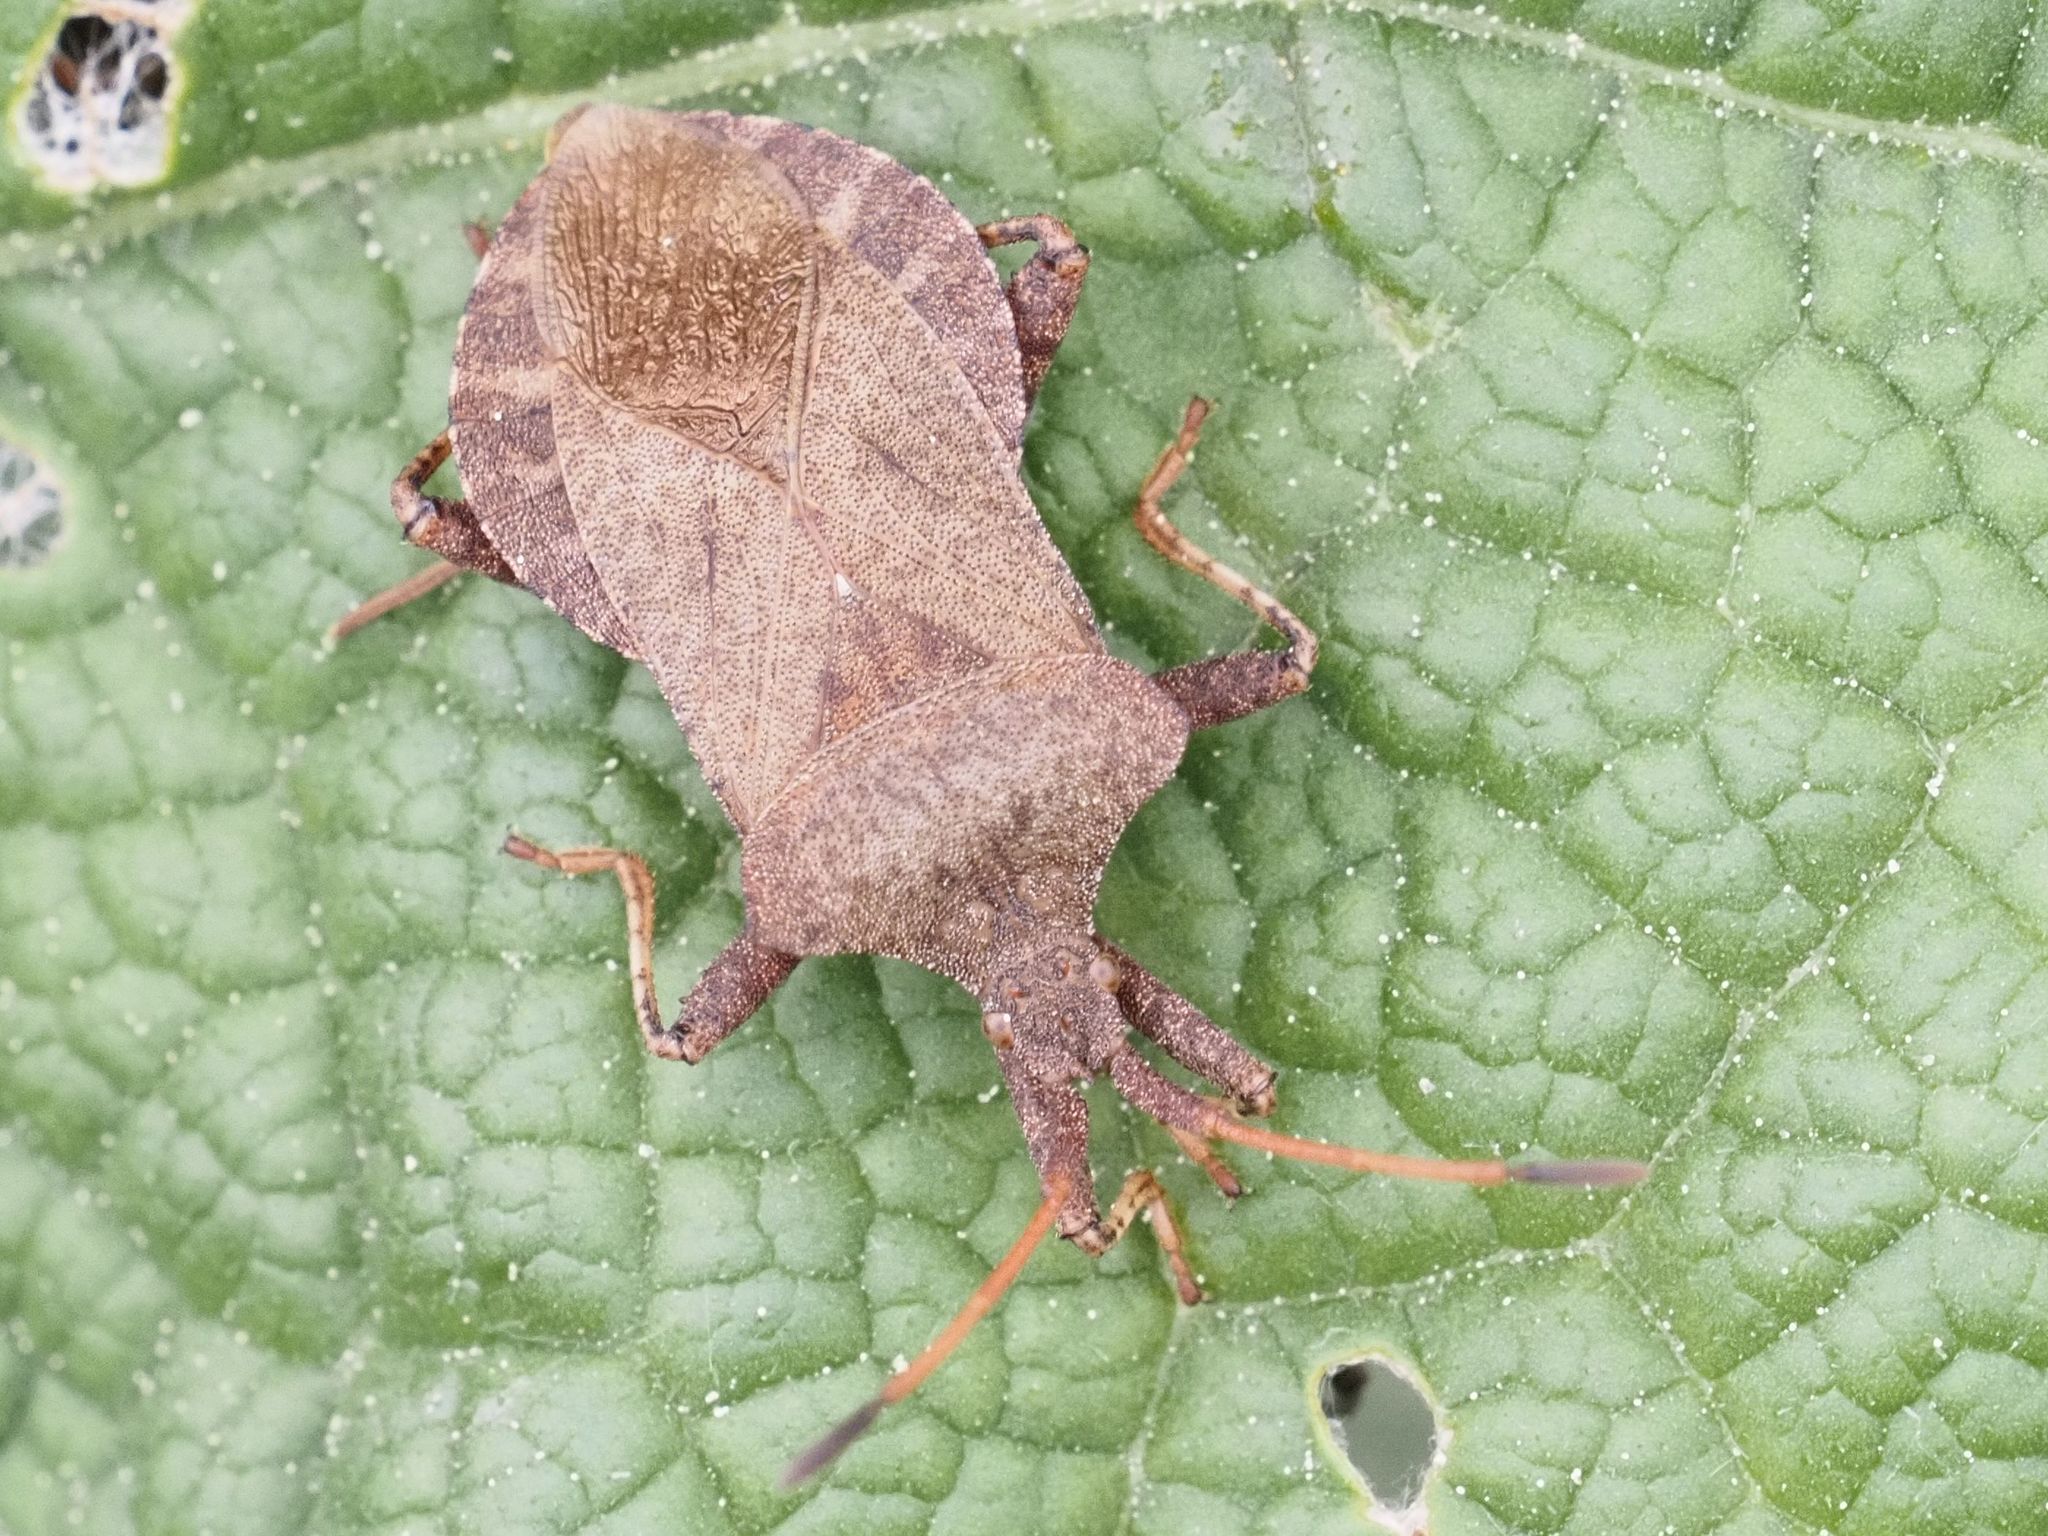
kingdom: Animalia
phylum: Arthropoda
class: Insecta
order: Hemiptera
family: Coreidae
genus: Coreus
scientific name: Coreus marginatus
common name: Dock bug
